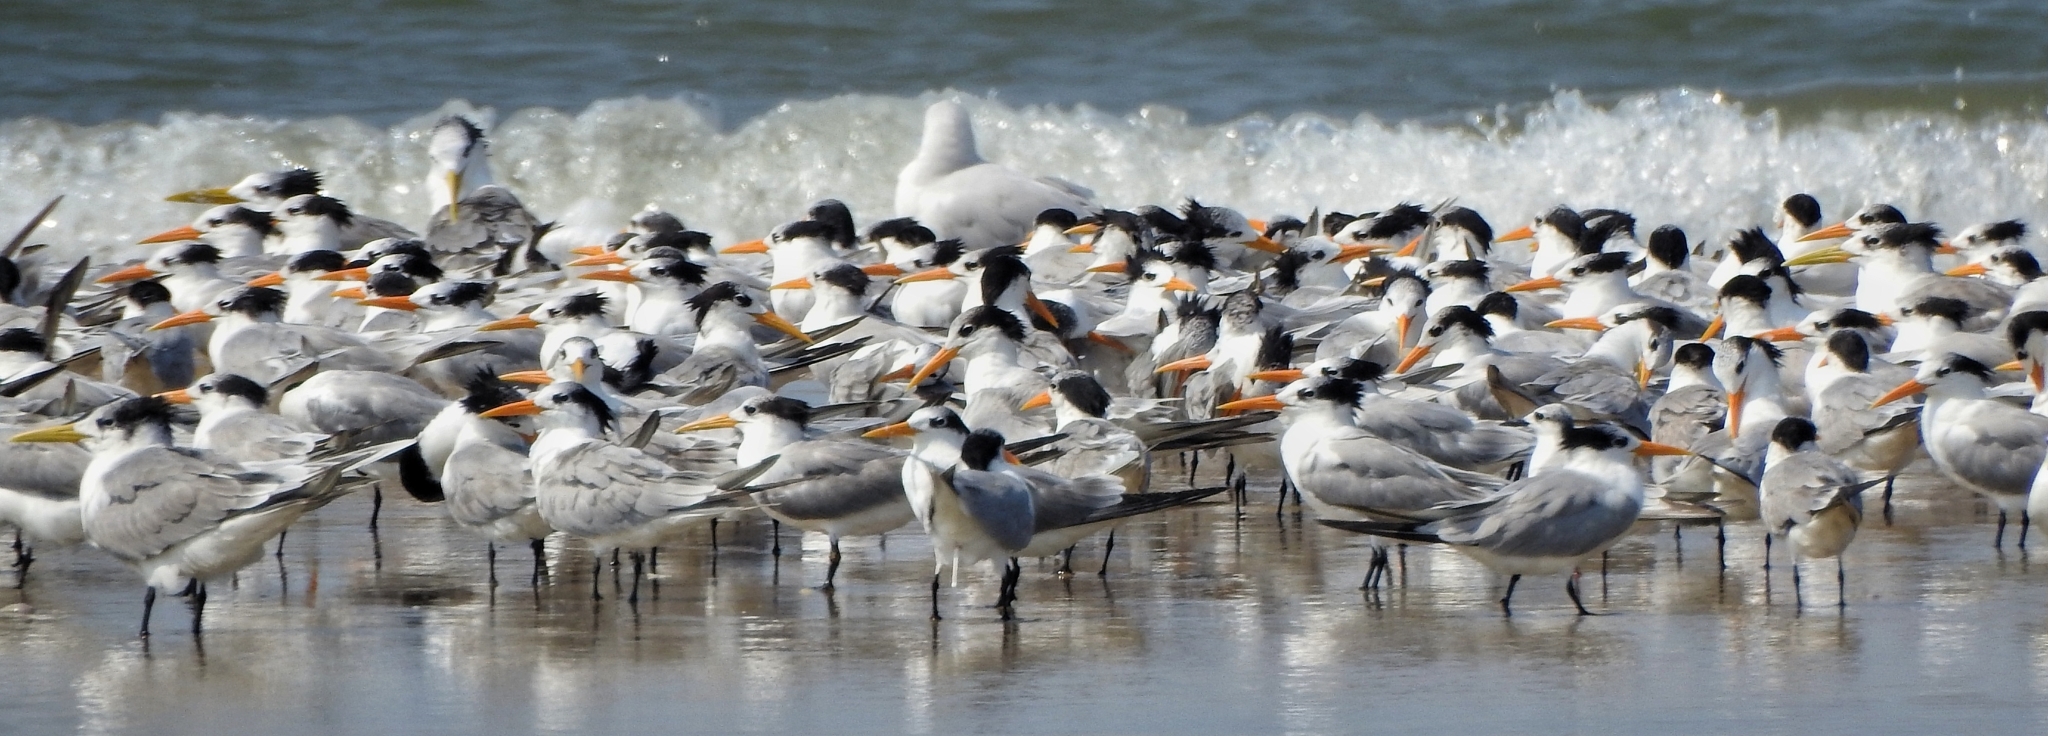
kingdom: Animalia
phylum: Chordata
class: Aves
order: Charadriiformes
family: Laridae
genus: Thalasseus
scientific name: Thalasseus bengalensis
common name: Lesser crested tern
